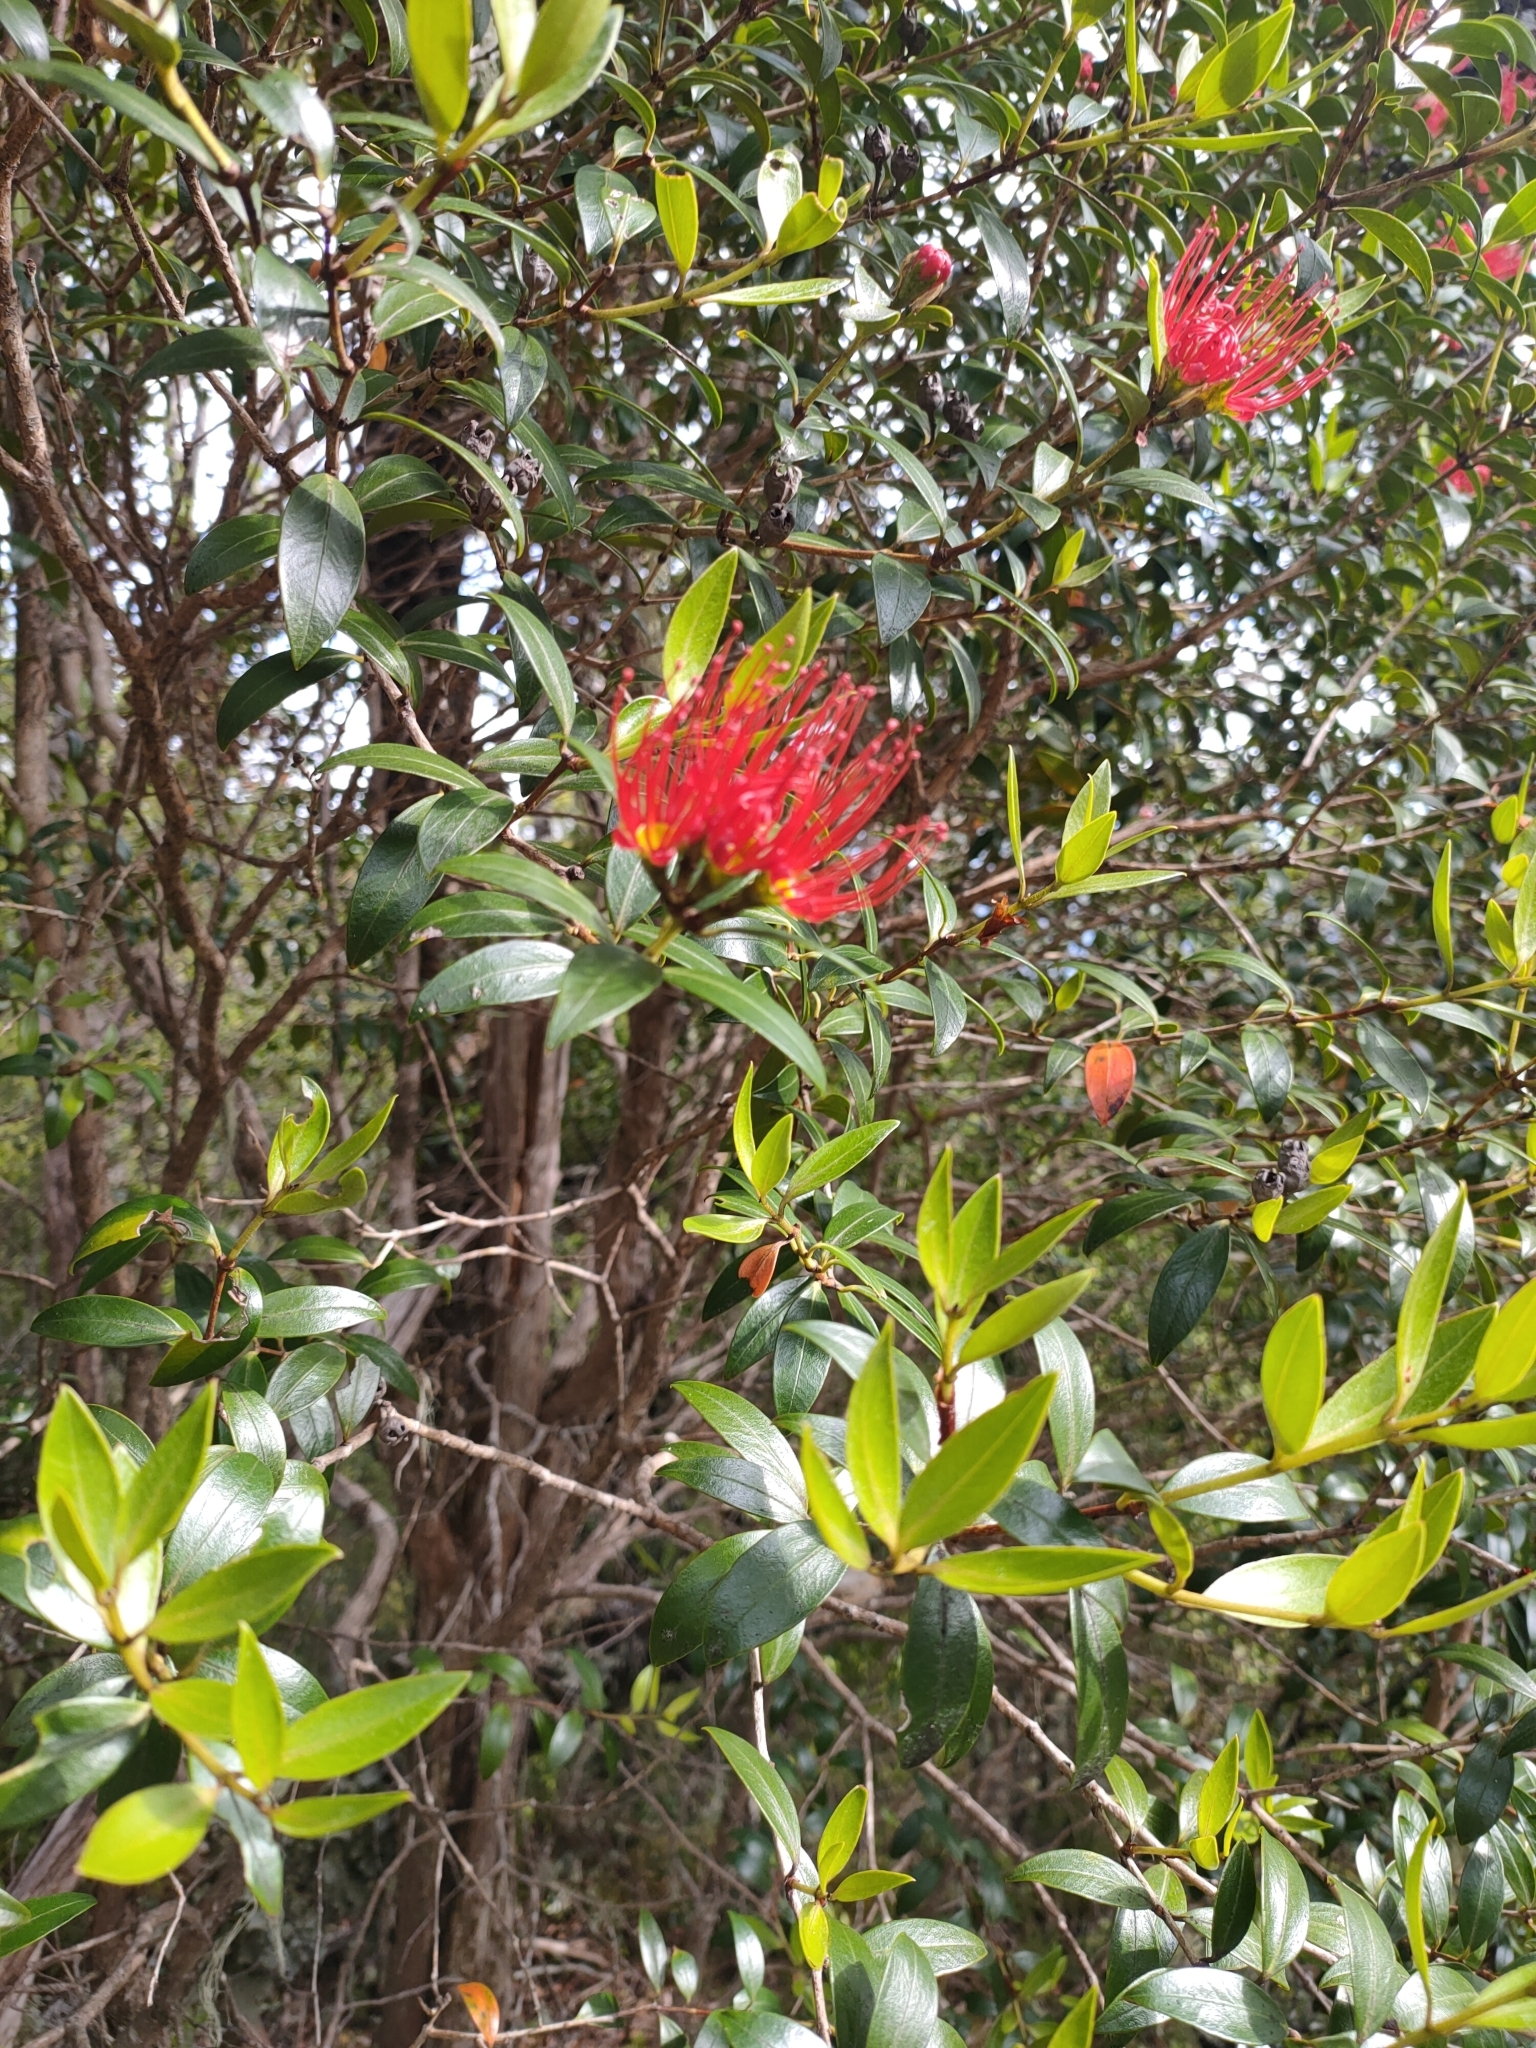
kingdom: Plantae
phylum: Tracheophyta
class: Magnoliopsida
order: Myrtales
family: Myrtaceae
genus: Metrosideros
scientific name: Metrosideros umbellata
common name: Southern rata
